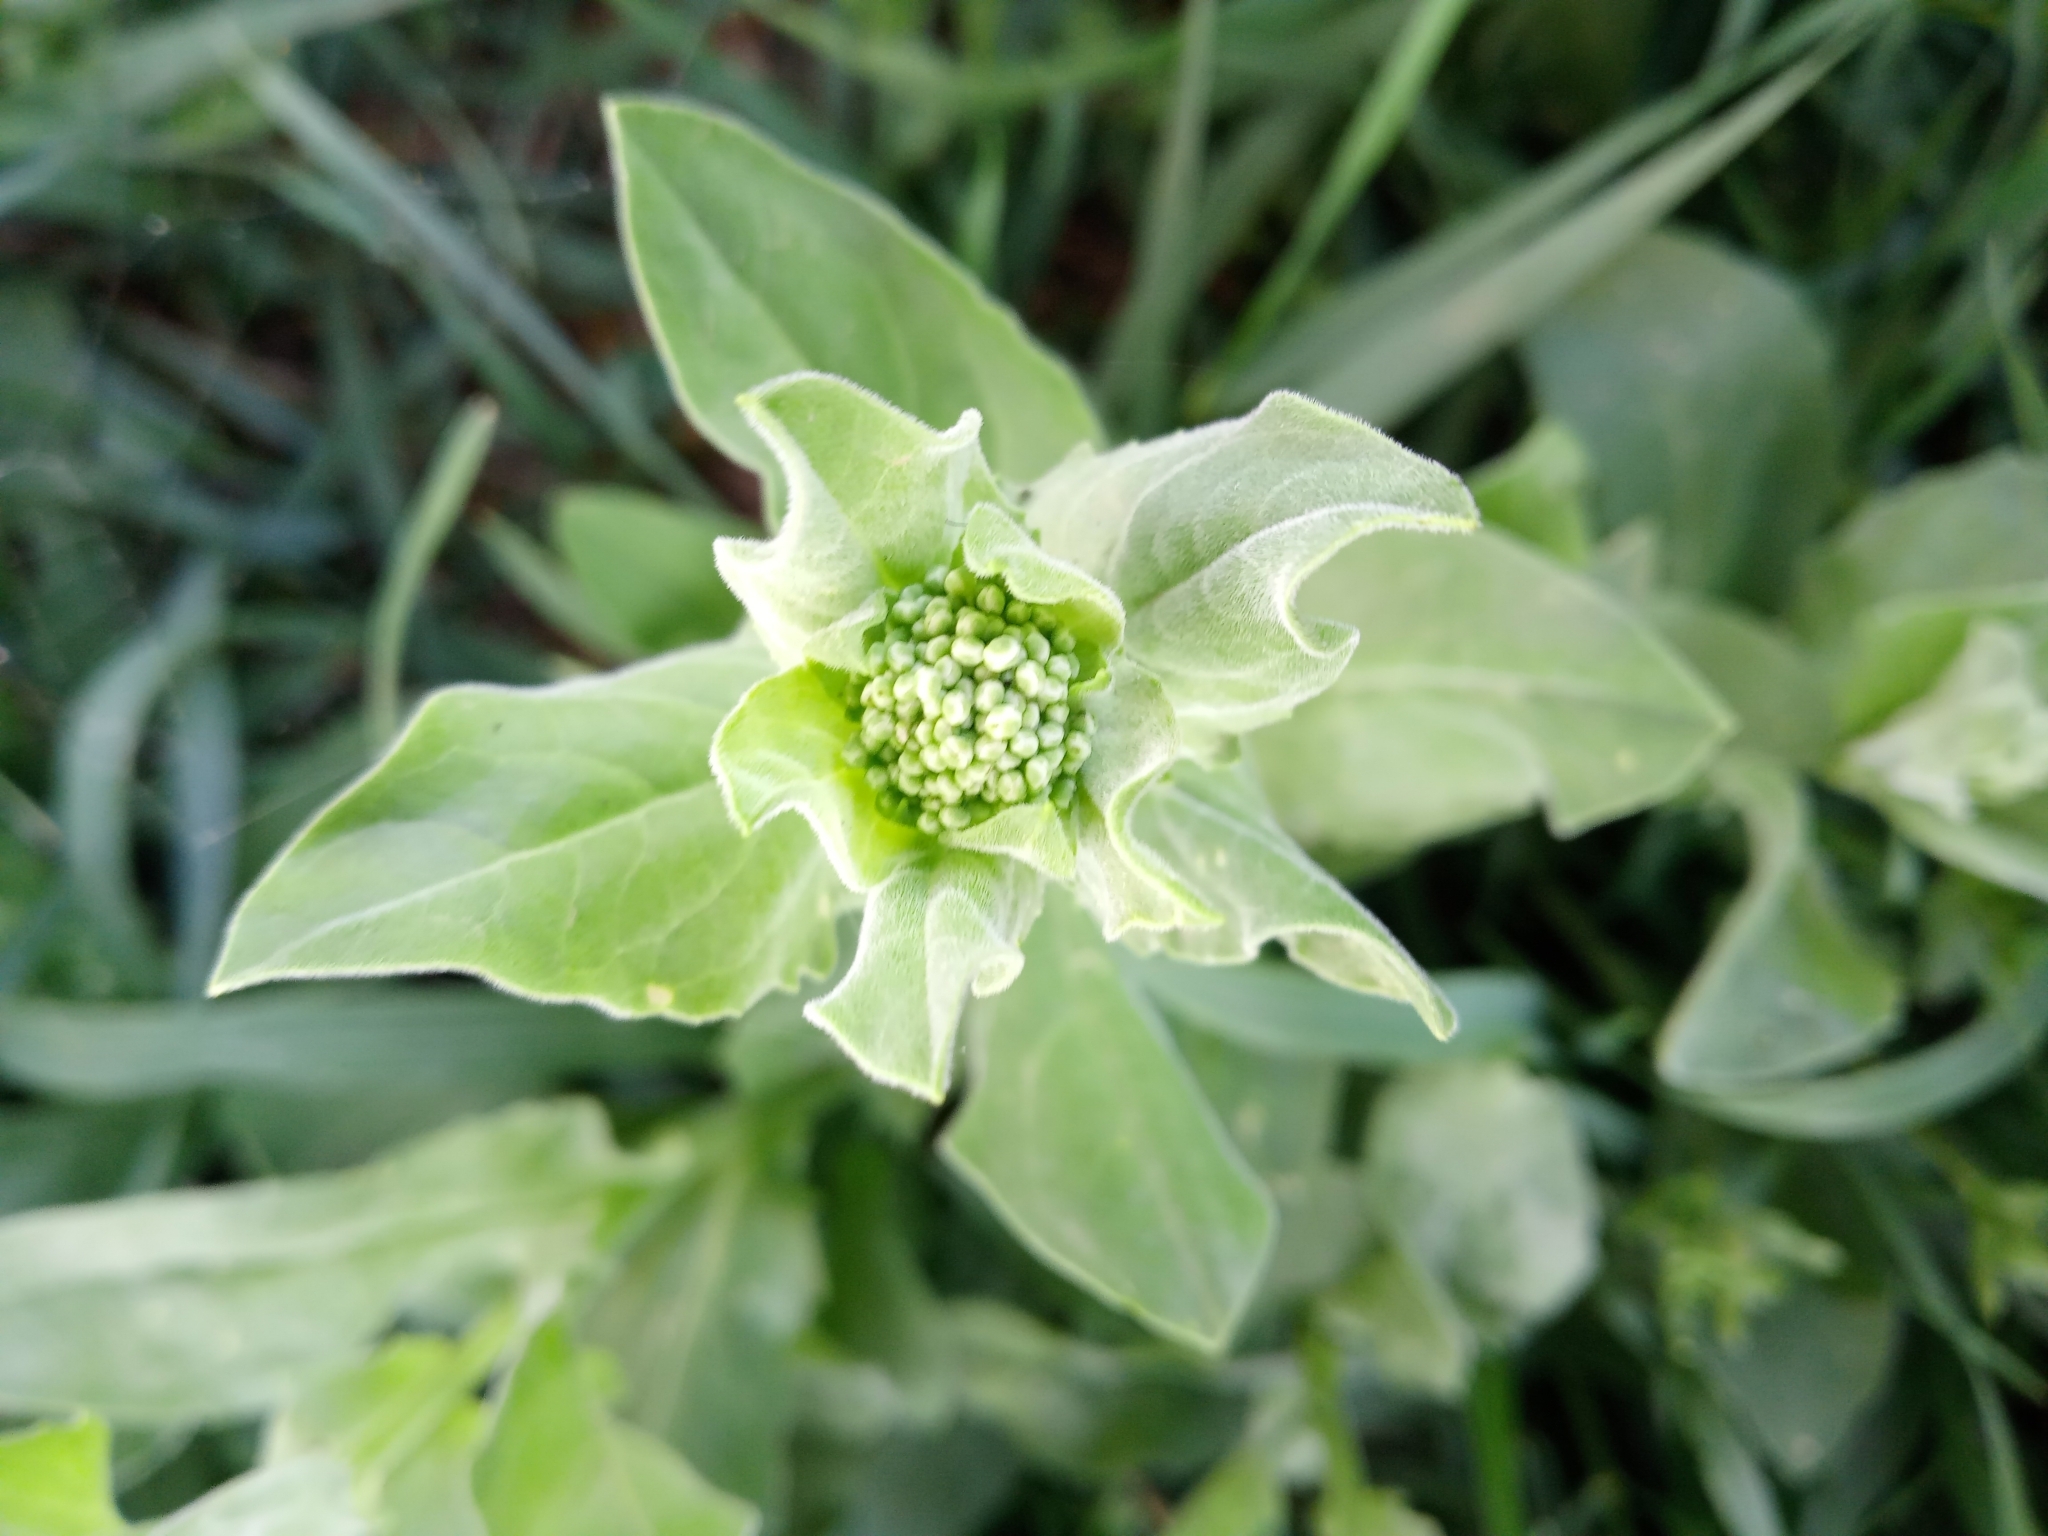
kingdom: Plantae
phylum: Tracheophyta
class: Magnoliopsida
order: Brassicales
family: Brassicaceae
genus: Lepidium
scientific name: Lepidium draba
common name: Hoary cress
